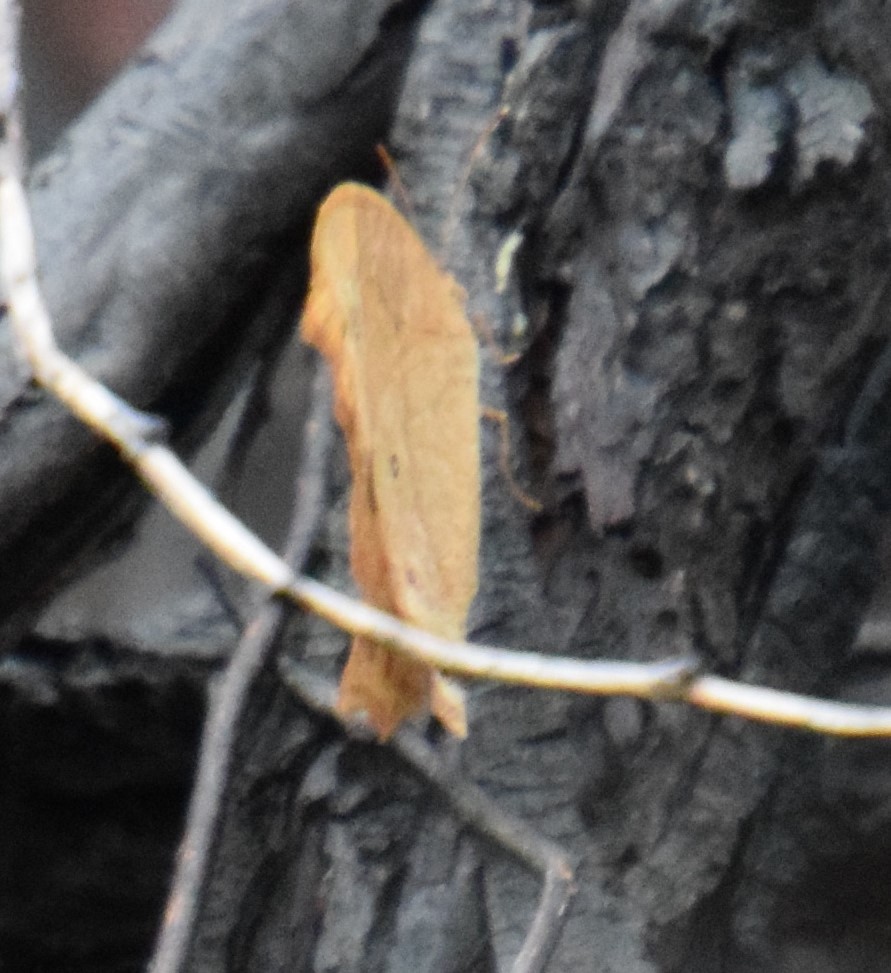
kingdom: Animalia
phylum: Arthropoda
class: Insecta
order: Lepidoptera
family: Nymphalidae
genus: Melanitis
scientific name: Melanitis leda
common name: Twilight brown
